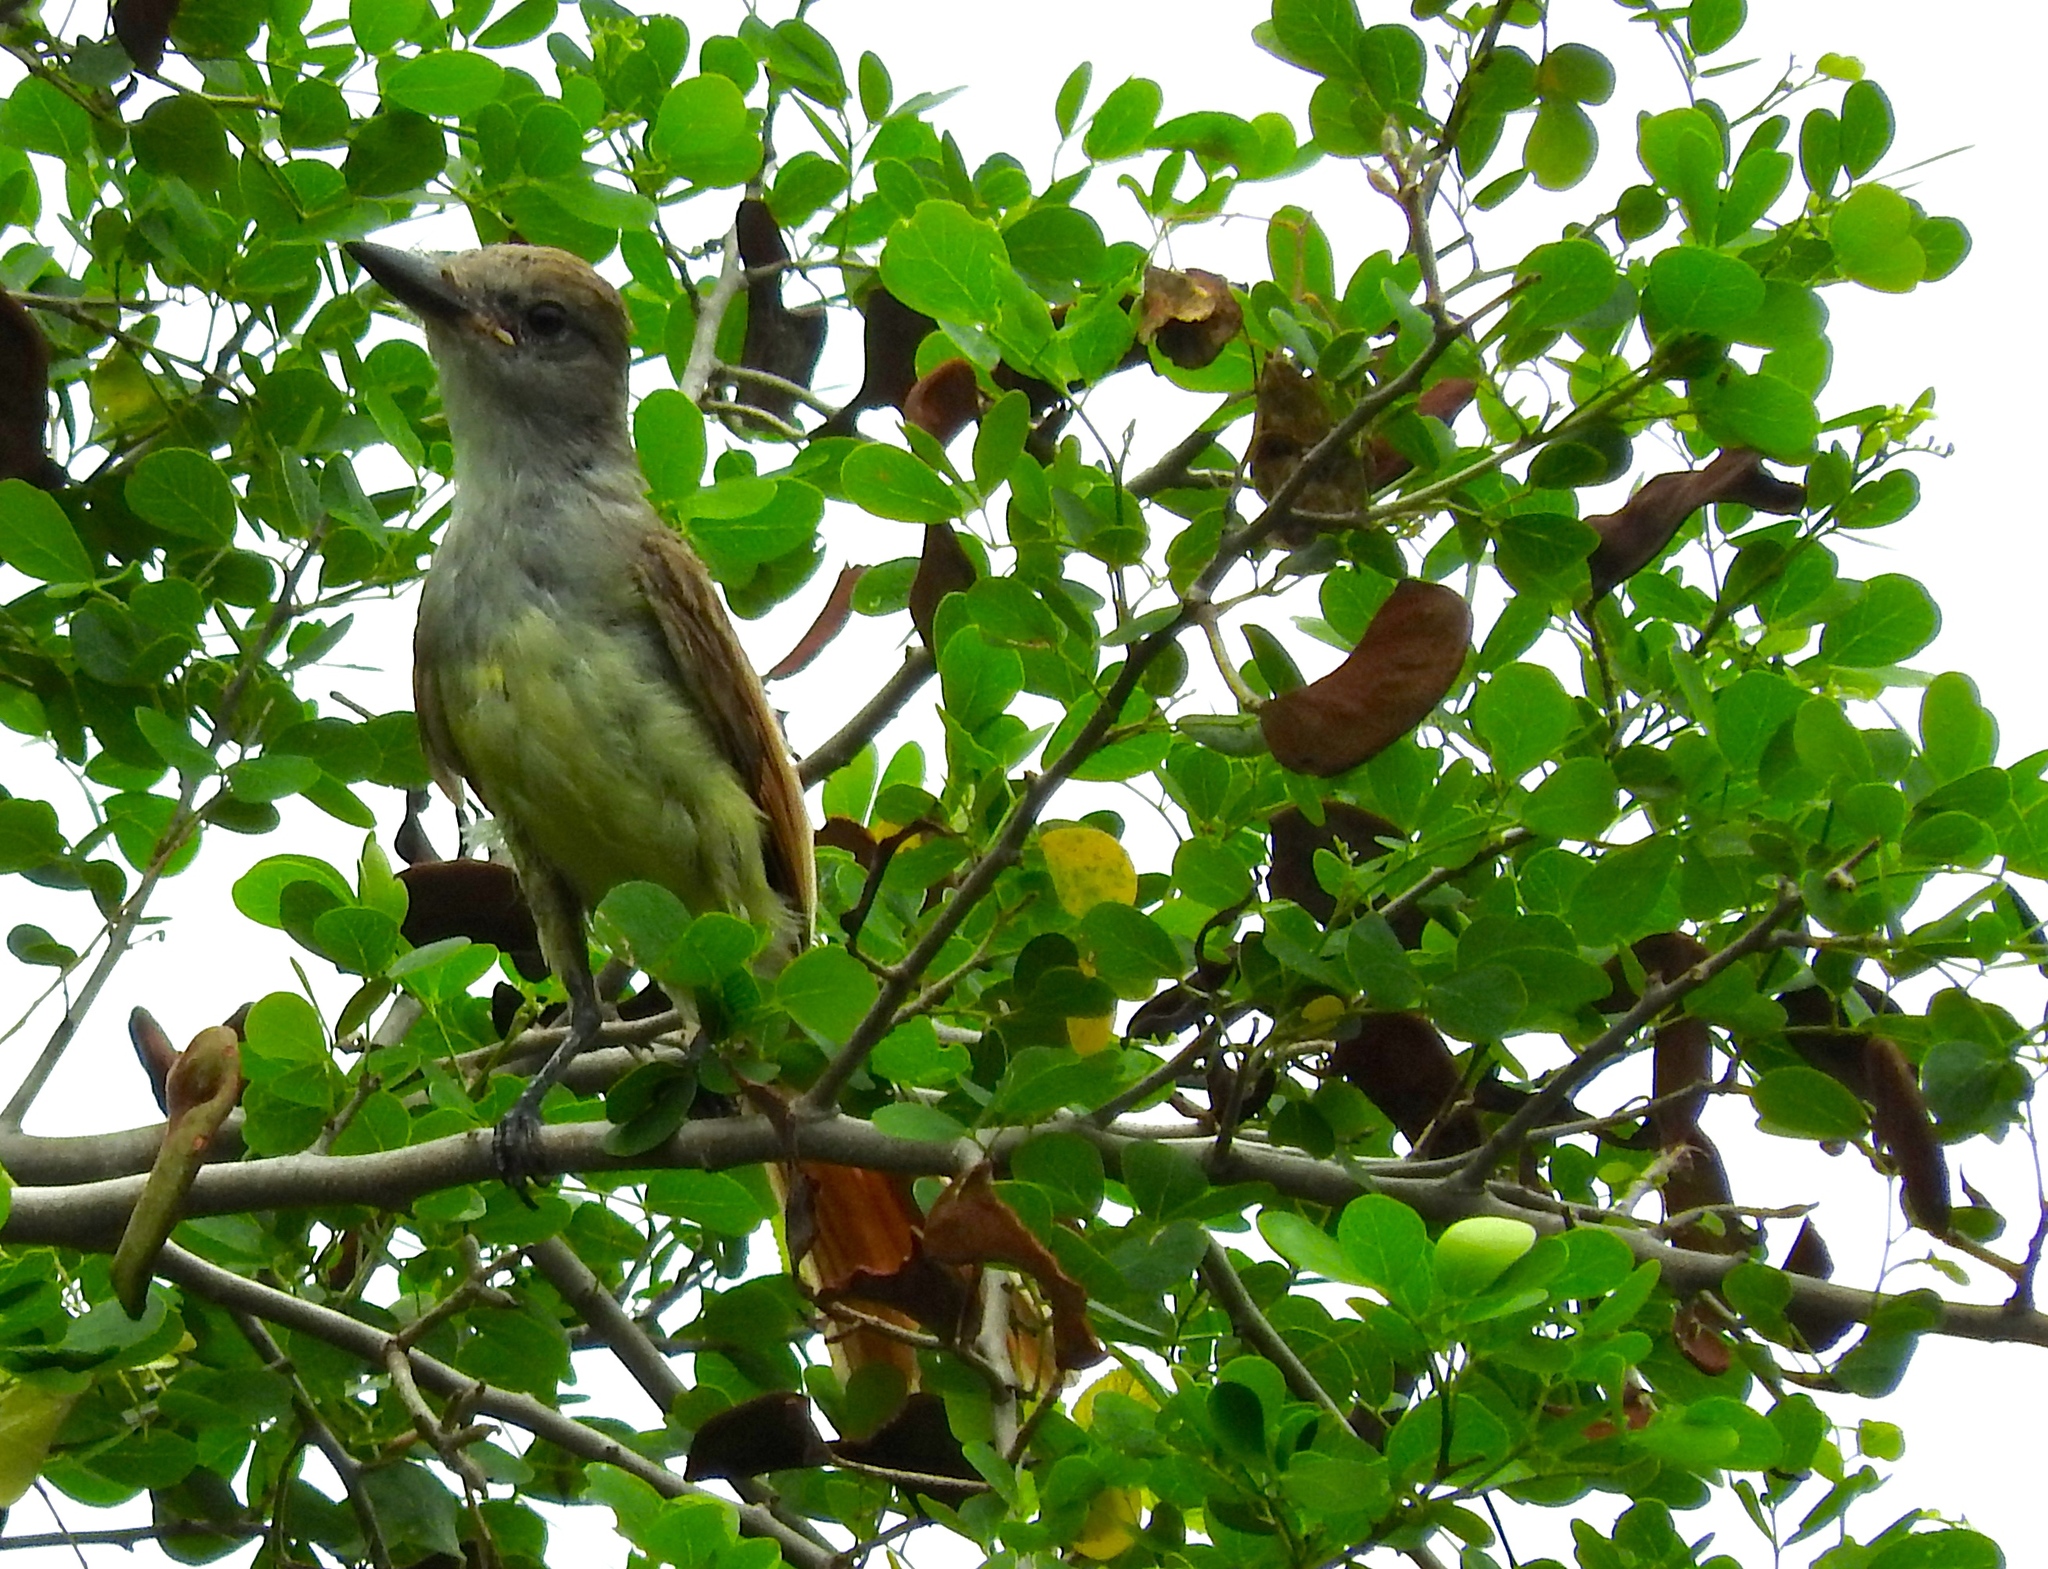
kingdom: Animalia
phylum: Chordata
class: Aves
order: Passeriformes
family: Tyrannidae
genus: Myiarchus
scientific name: Myiarchus tyrannulus
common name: Brown-crested flycatcher
